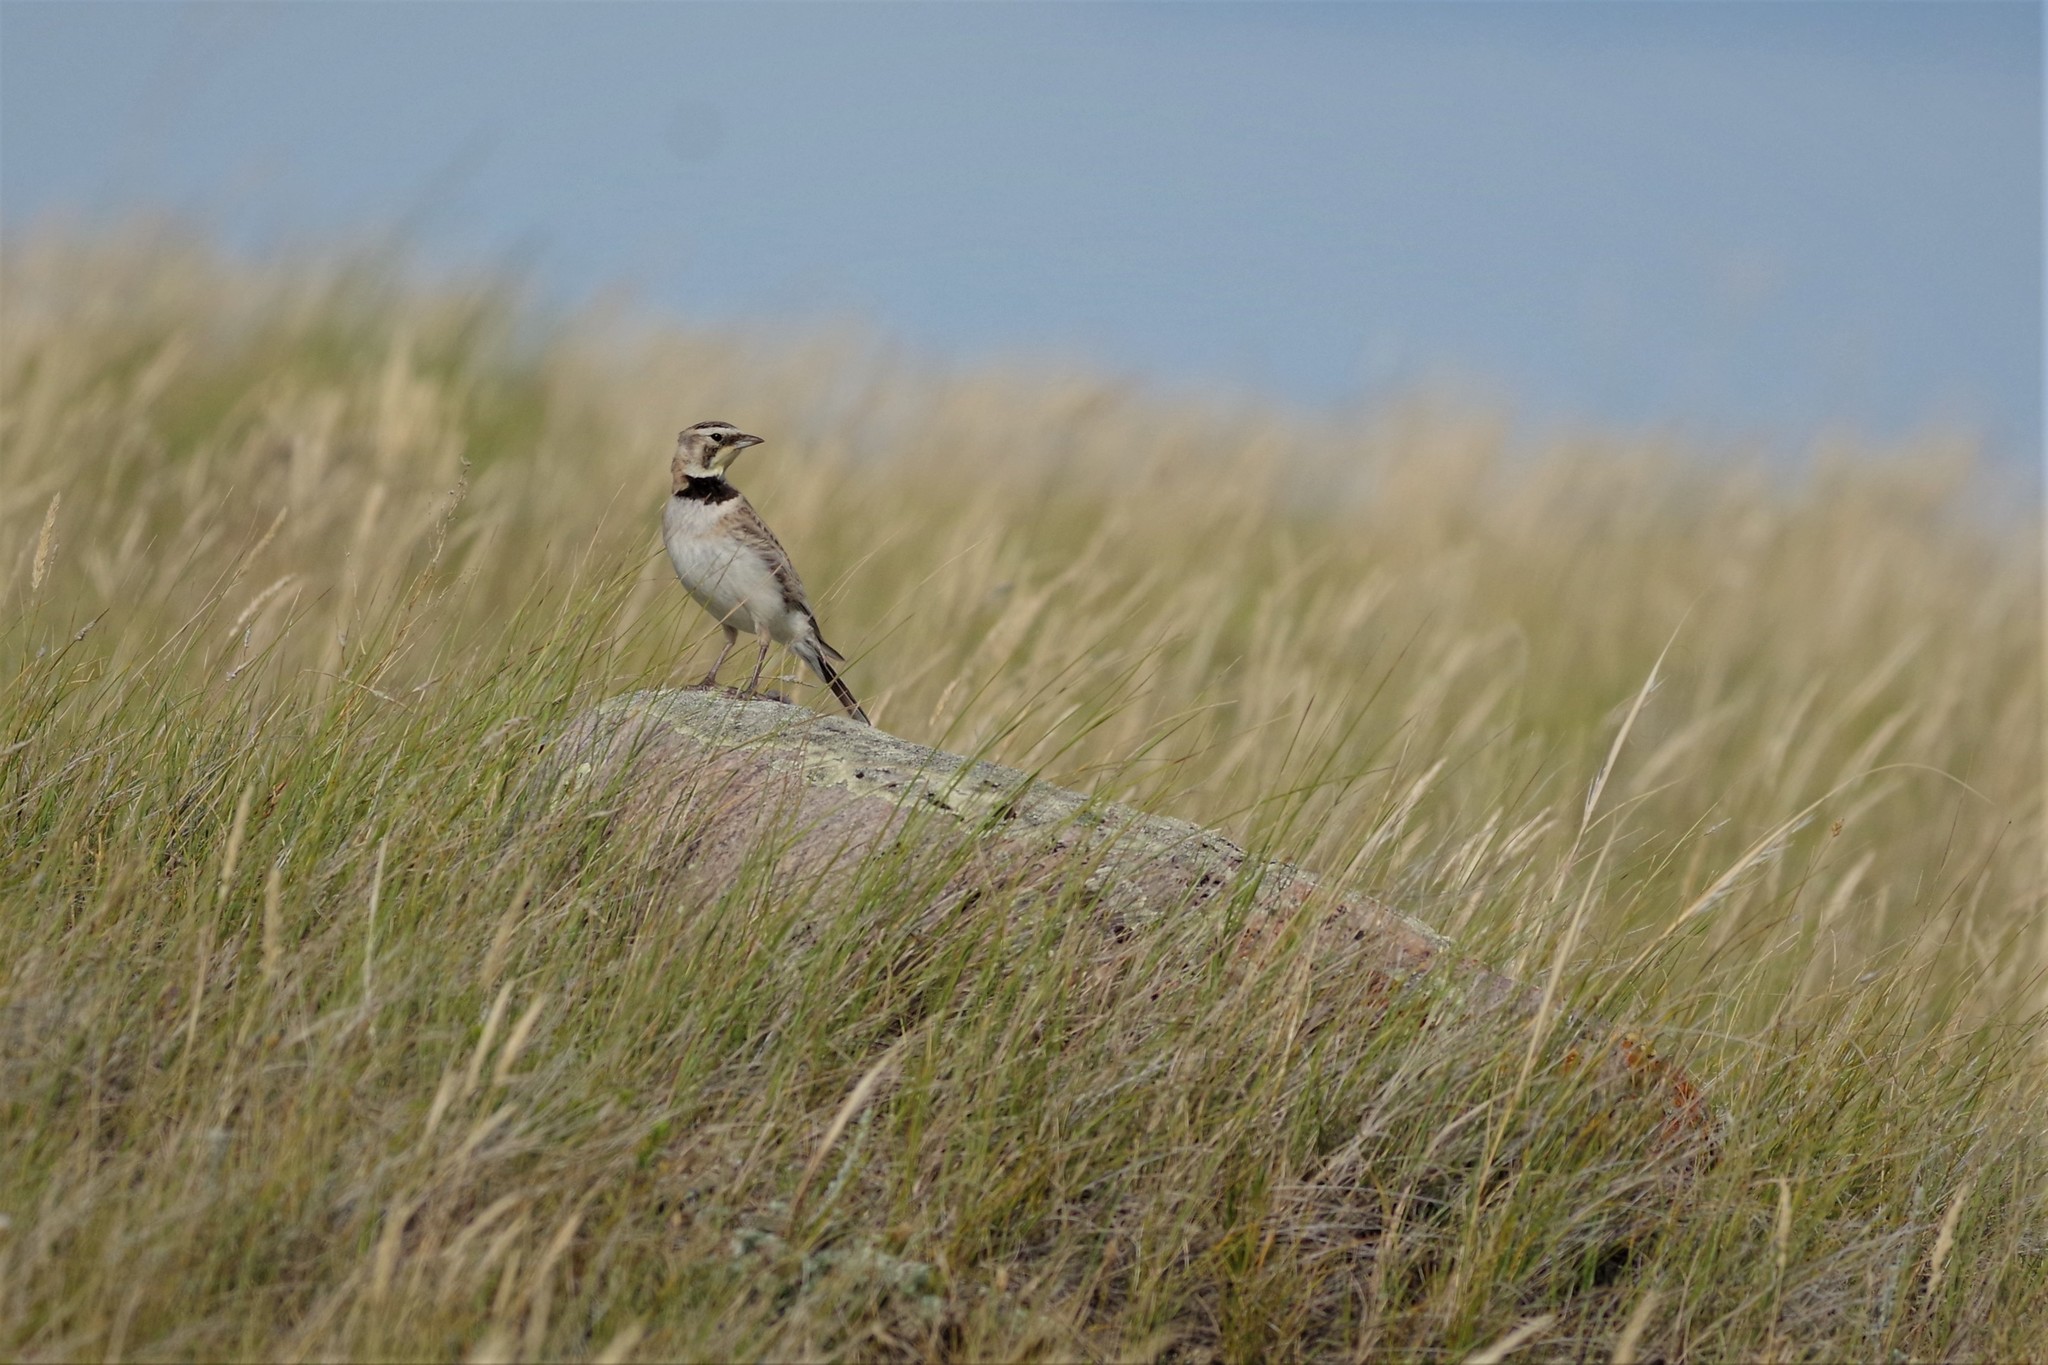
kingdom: Animalia
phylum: Chordata
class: Aves
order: Passeriformes
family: Alaudidae
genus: Eremophila
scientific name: Eremophila alpestris
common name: Horned lark
